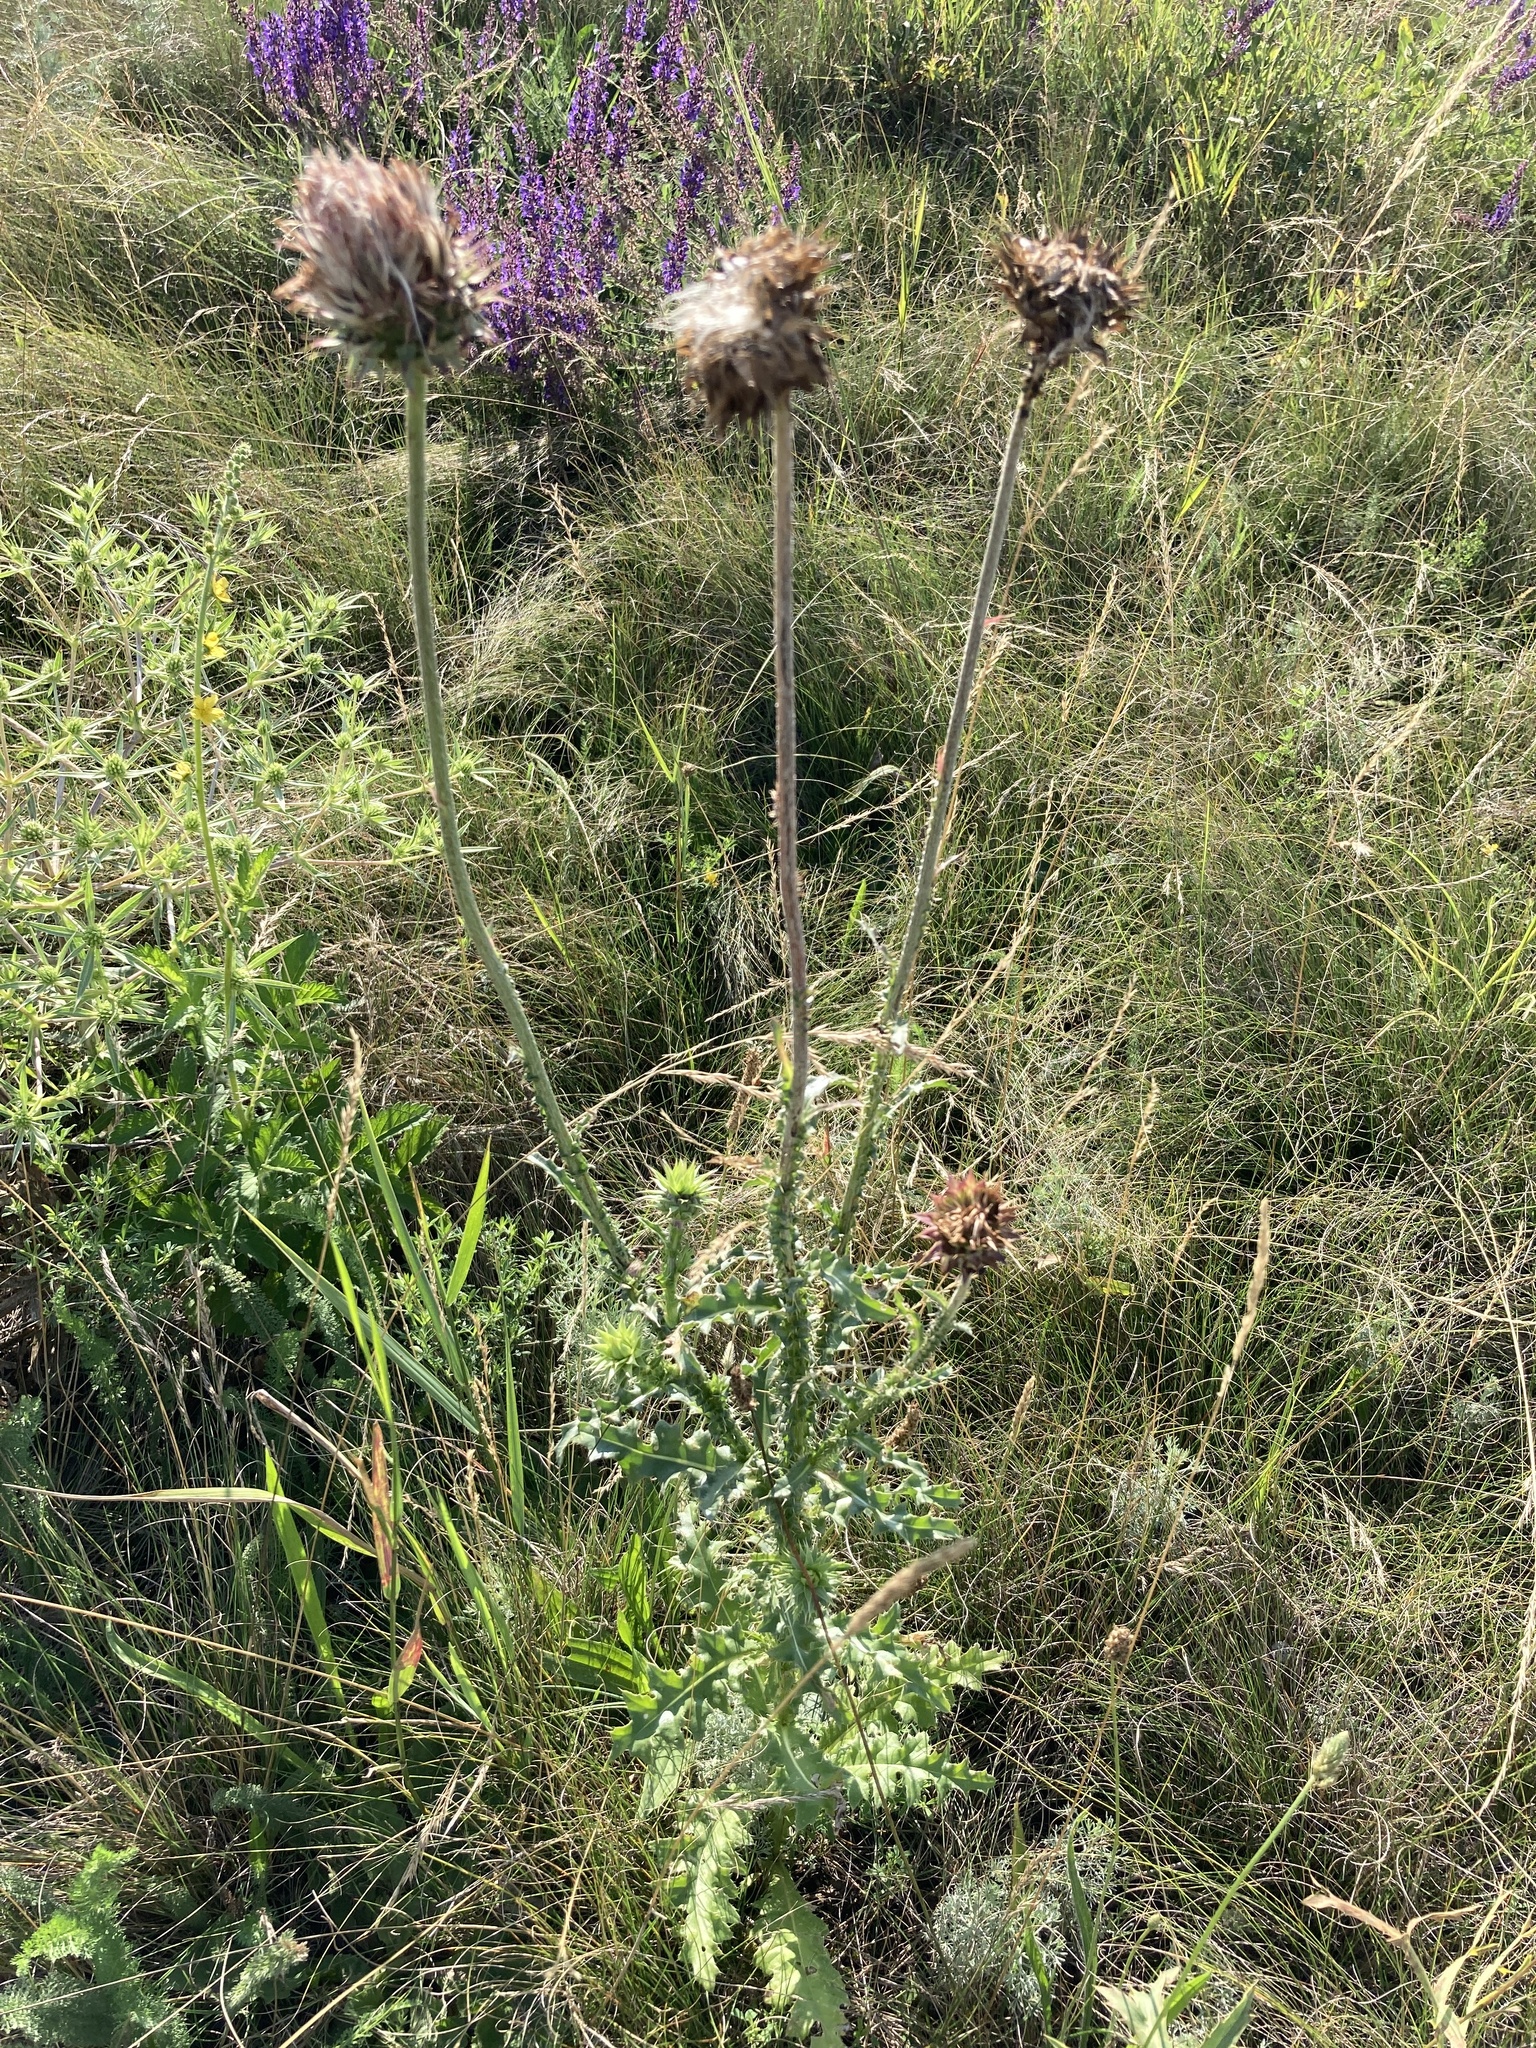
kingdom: Plantae
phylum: Tracheophyta
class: Magnoliopsida
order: Asterales
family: Asteraceae
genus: Carduus
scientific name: Carduus nutans
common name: Musk thistle
